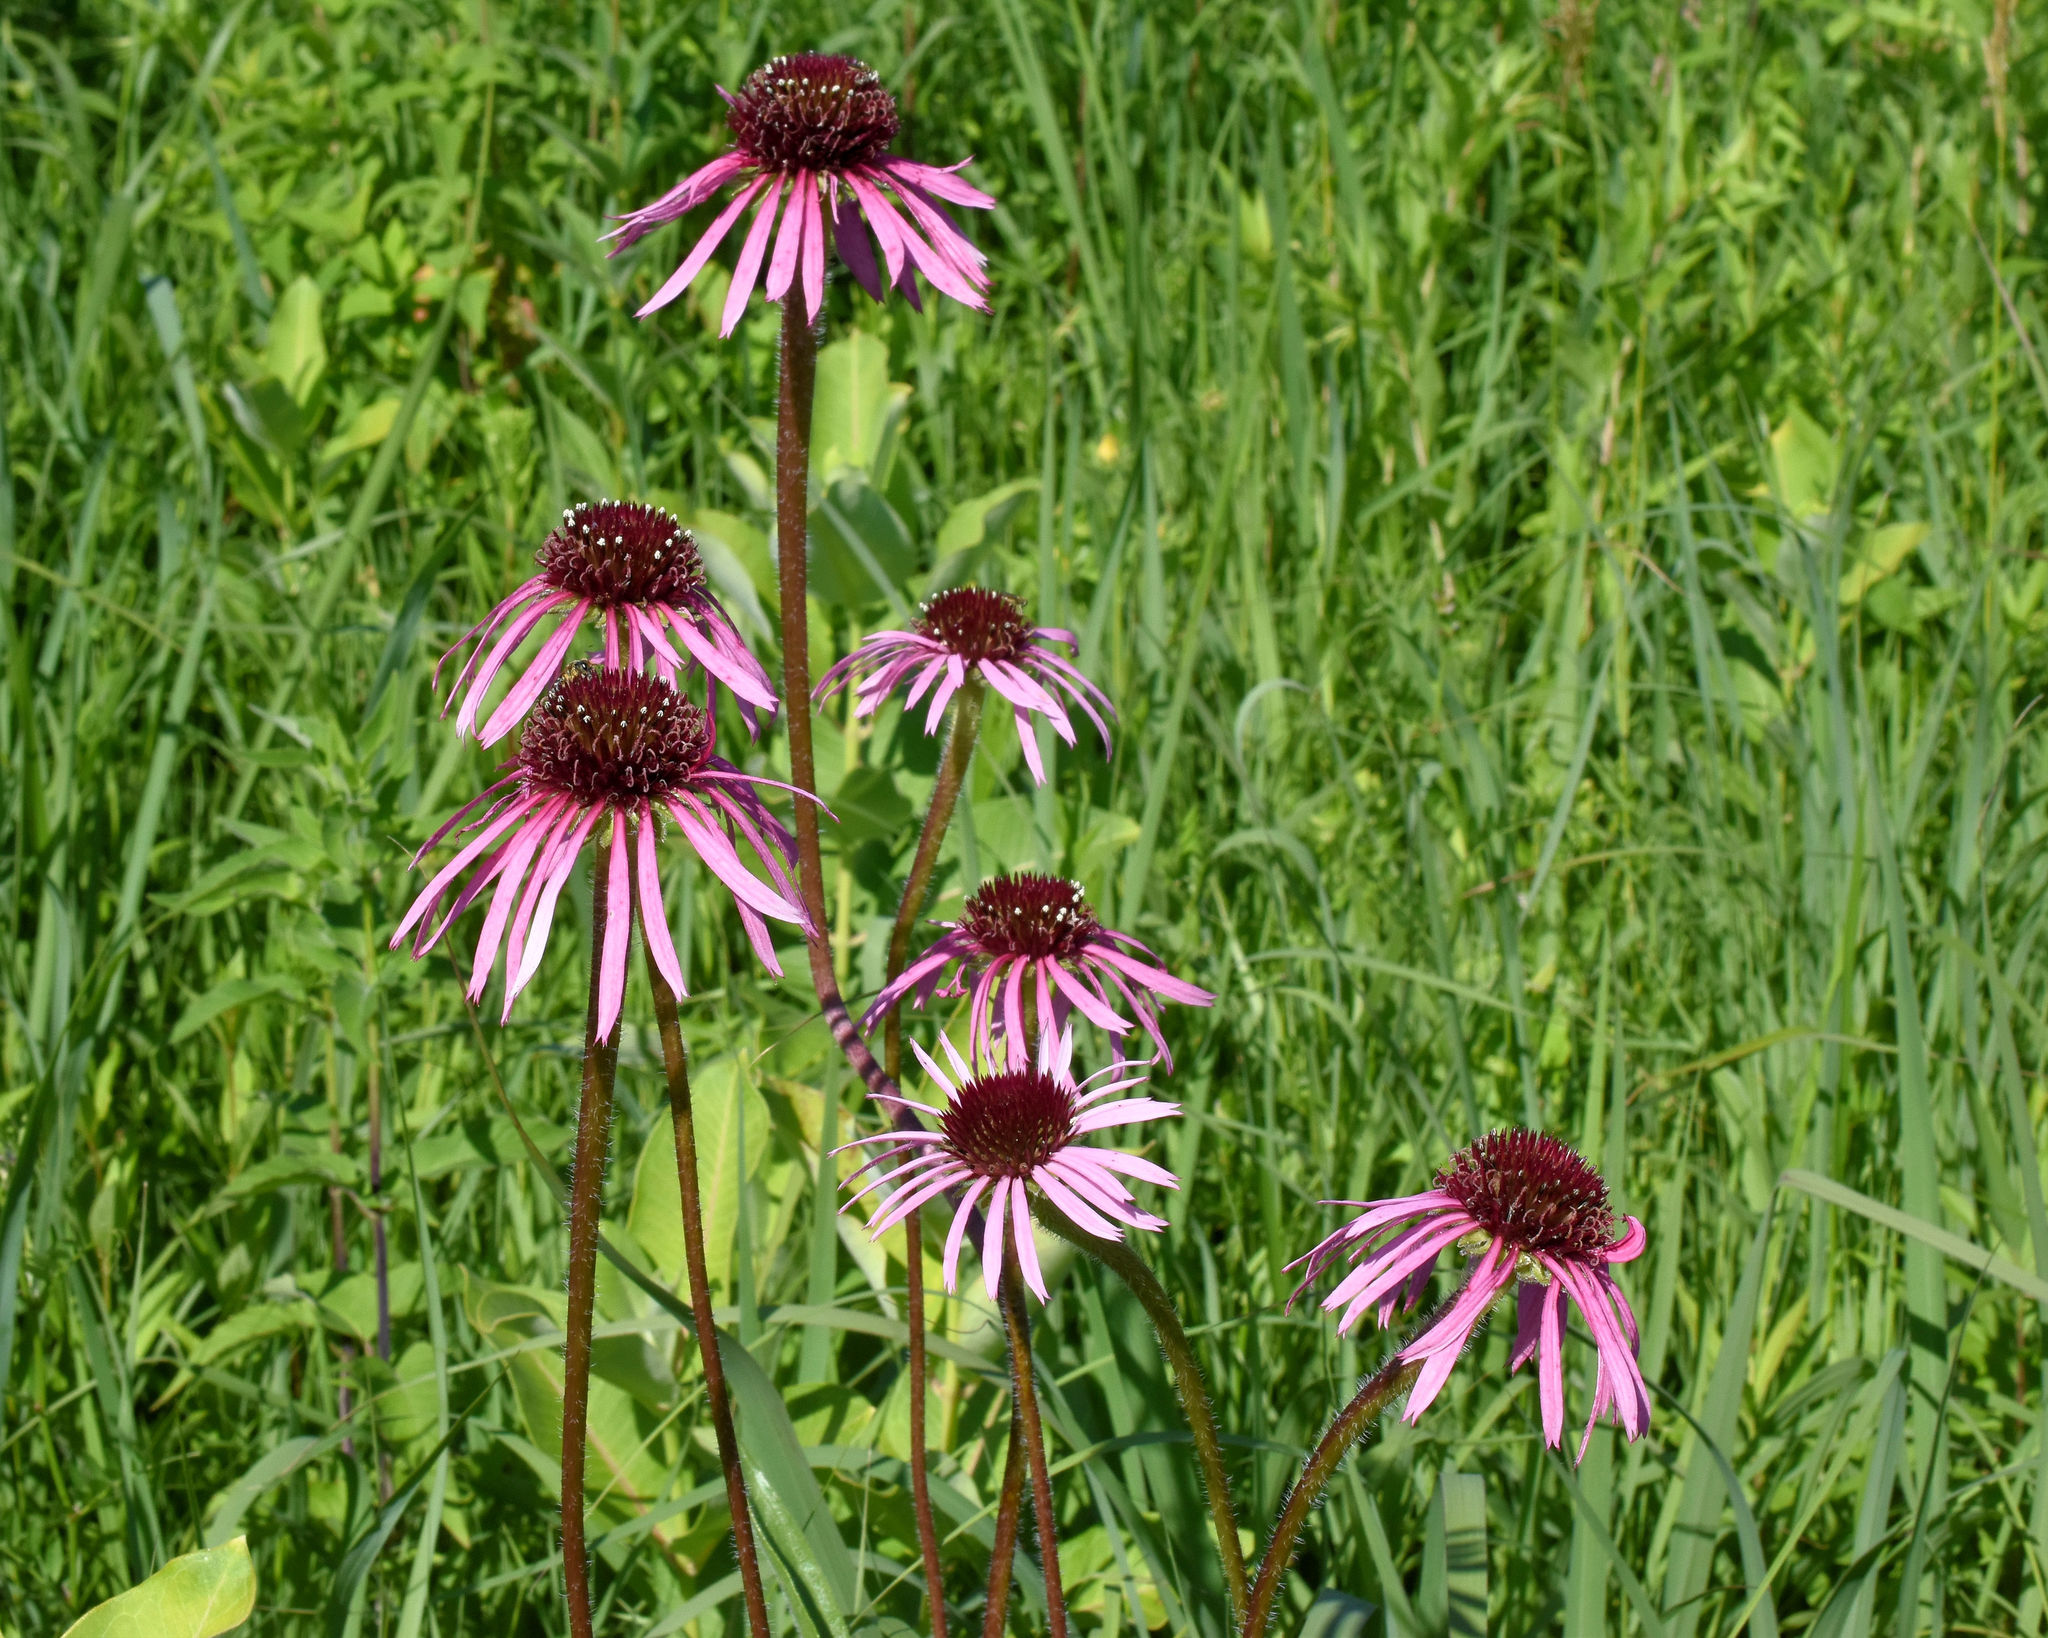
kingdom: Plantae
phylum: Tracheophyta
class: Magnoliopsida
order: Asterales
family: Asteraceae
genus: Echinacea
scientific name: Echinacea pallida
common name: Pale echinacea
